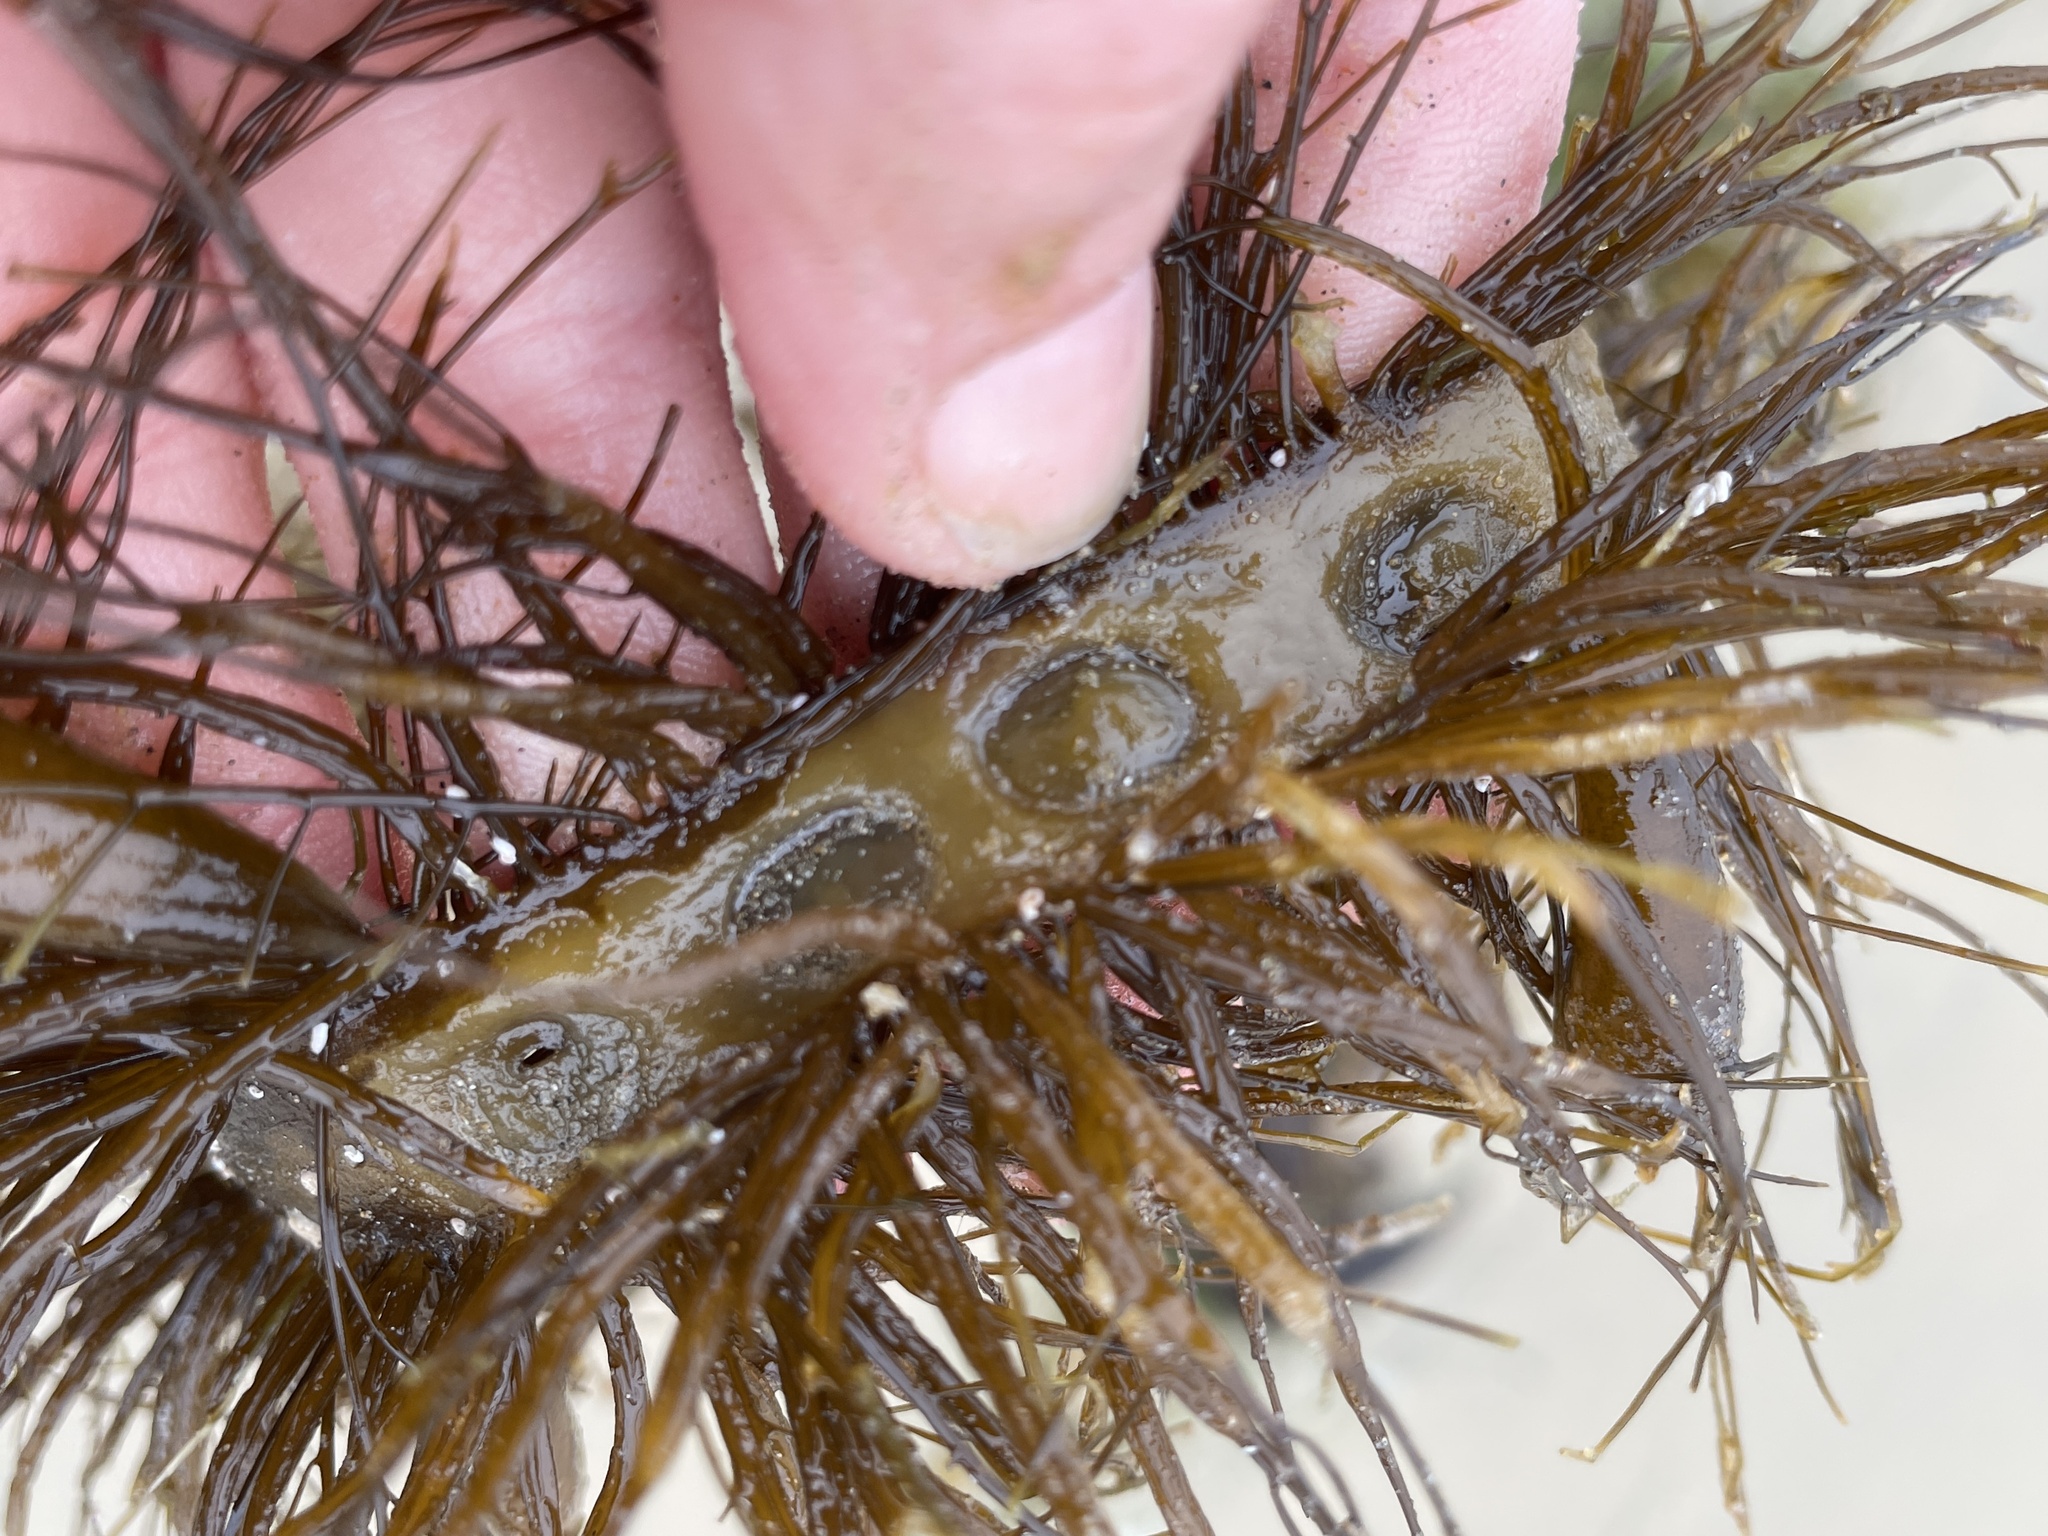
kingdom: Animalia
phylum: Mollusca
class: Gastropoda
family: Lottiidae
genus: Discurria
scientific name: Discurria insessa
